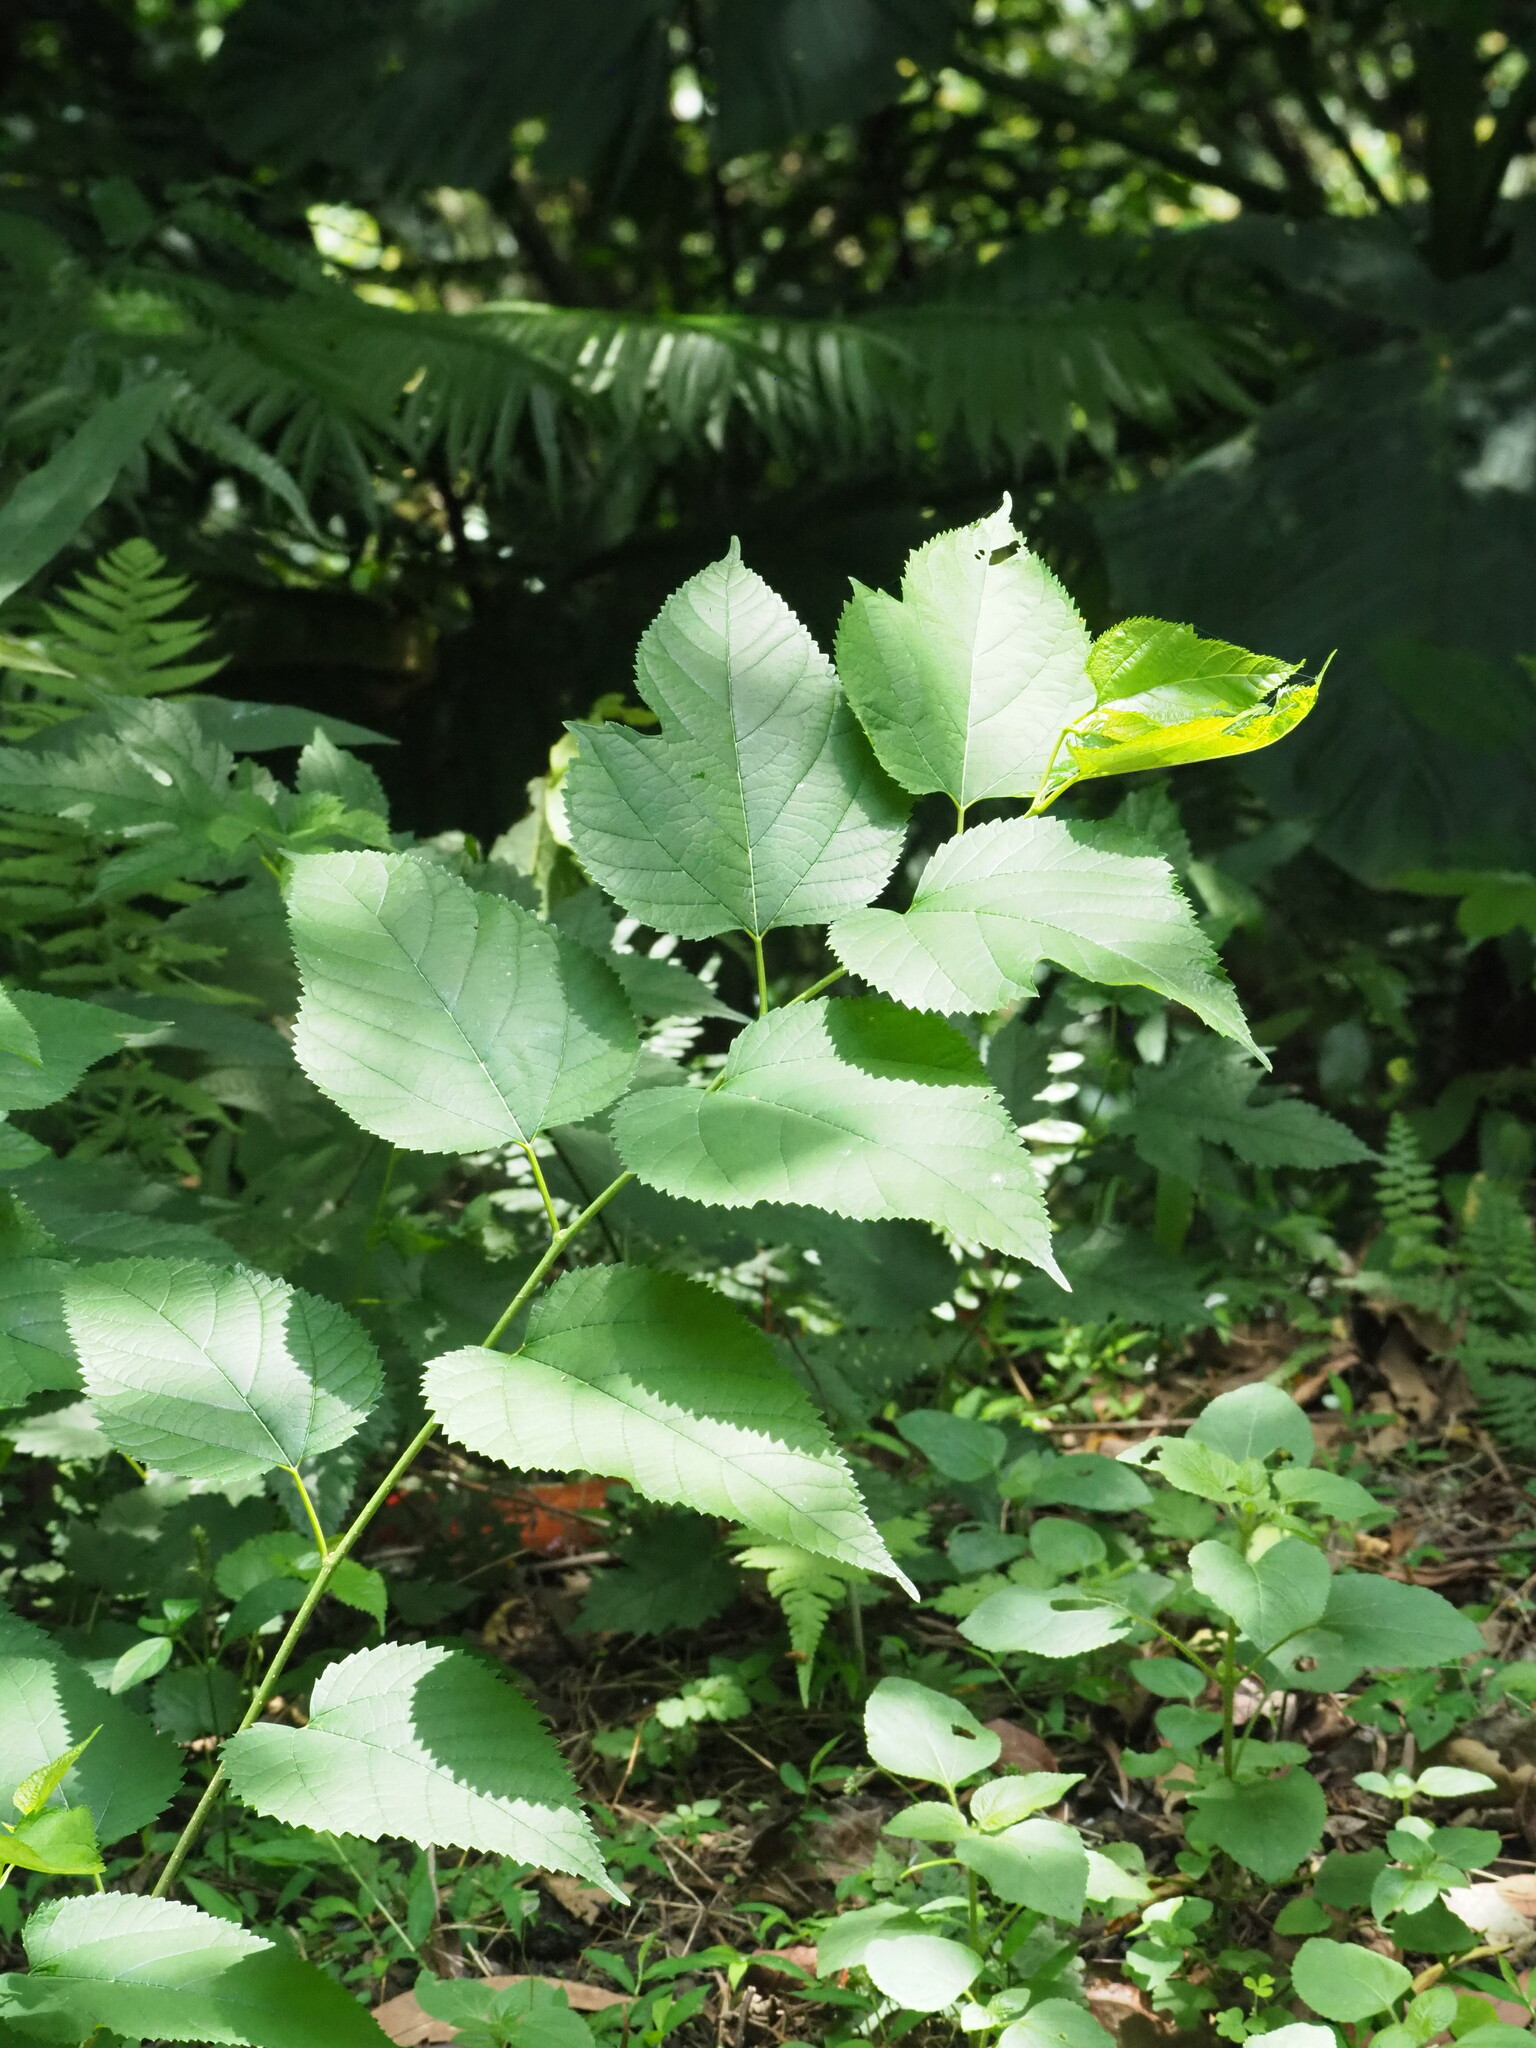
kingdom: Plantae
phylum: Tracheophyta
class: Magnoliopsida
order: Rosales
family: Moraceae
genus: Morus
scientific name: Morus indica
